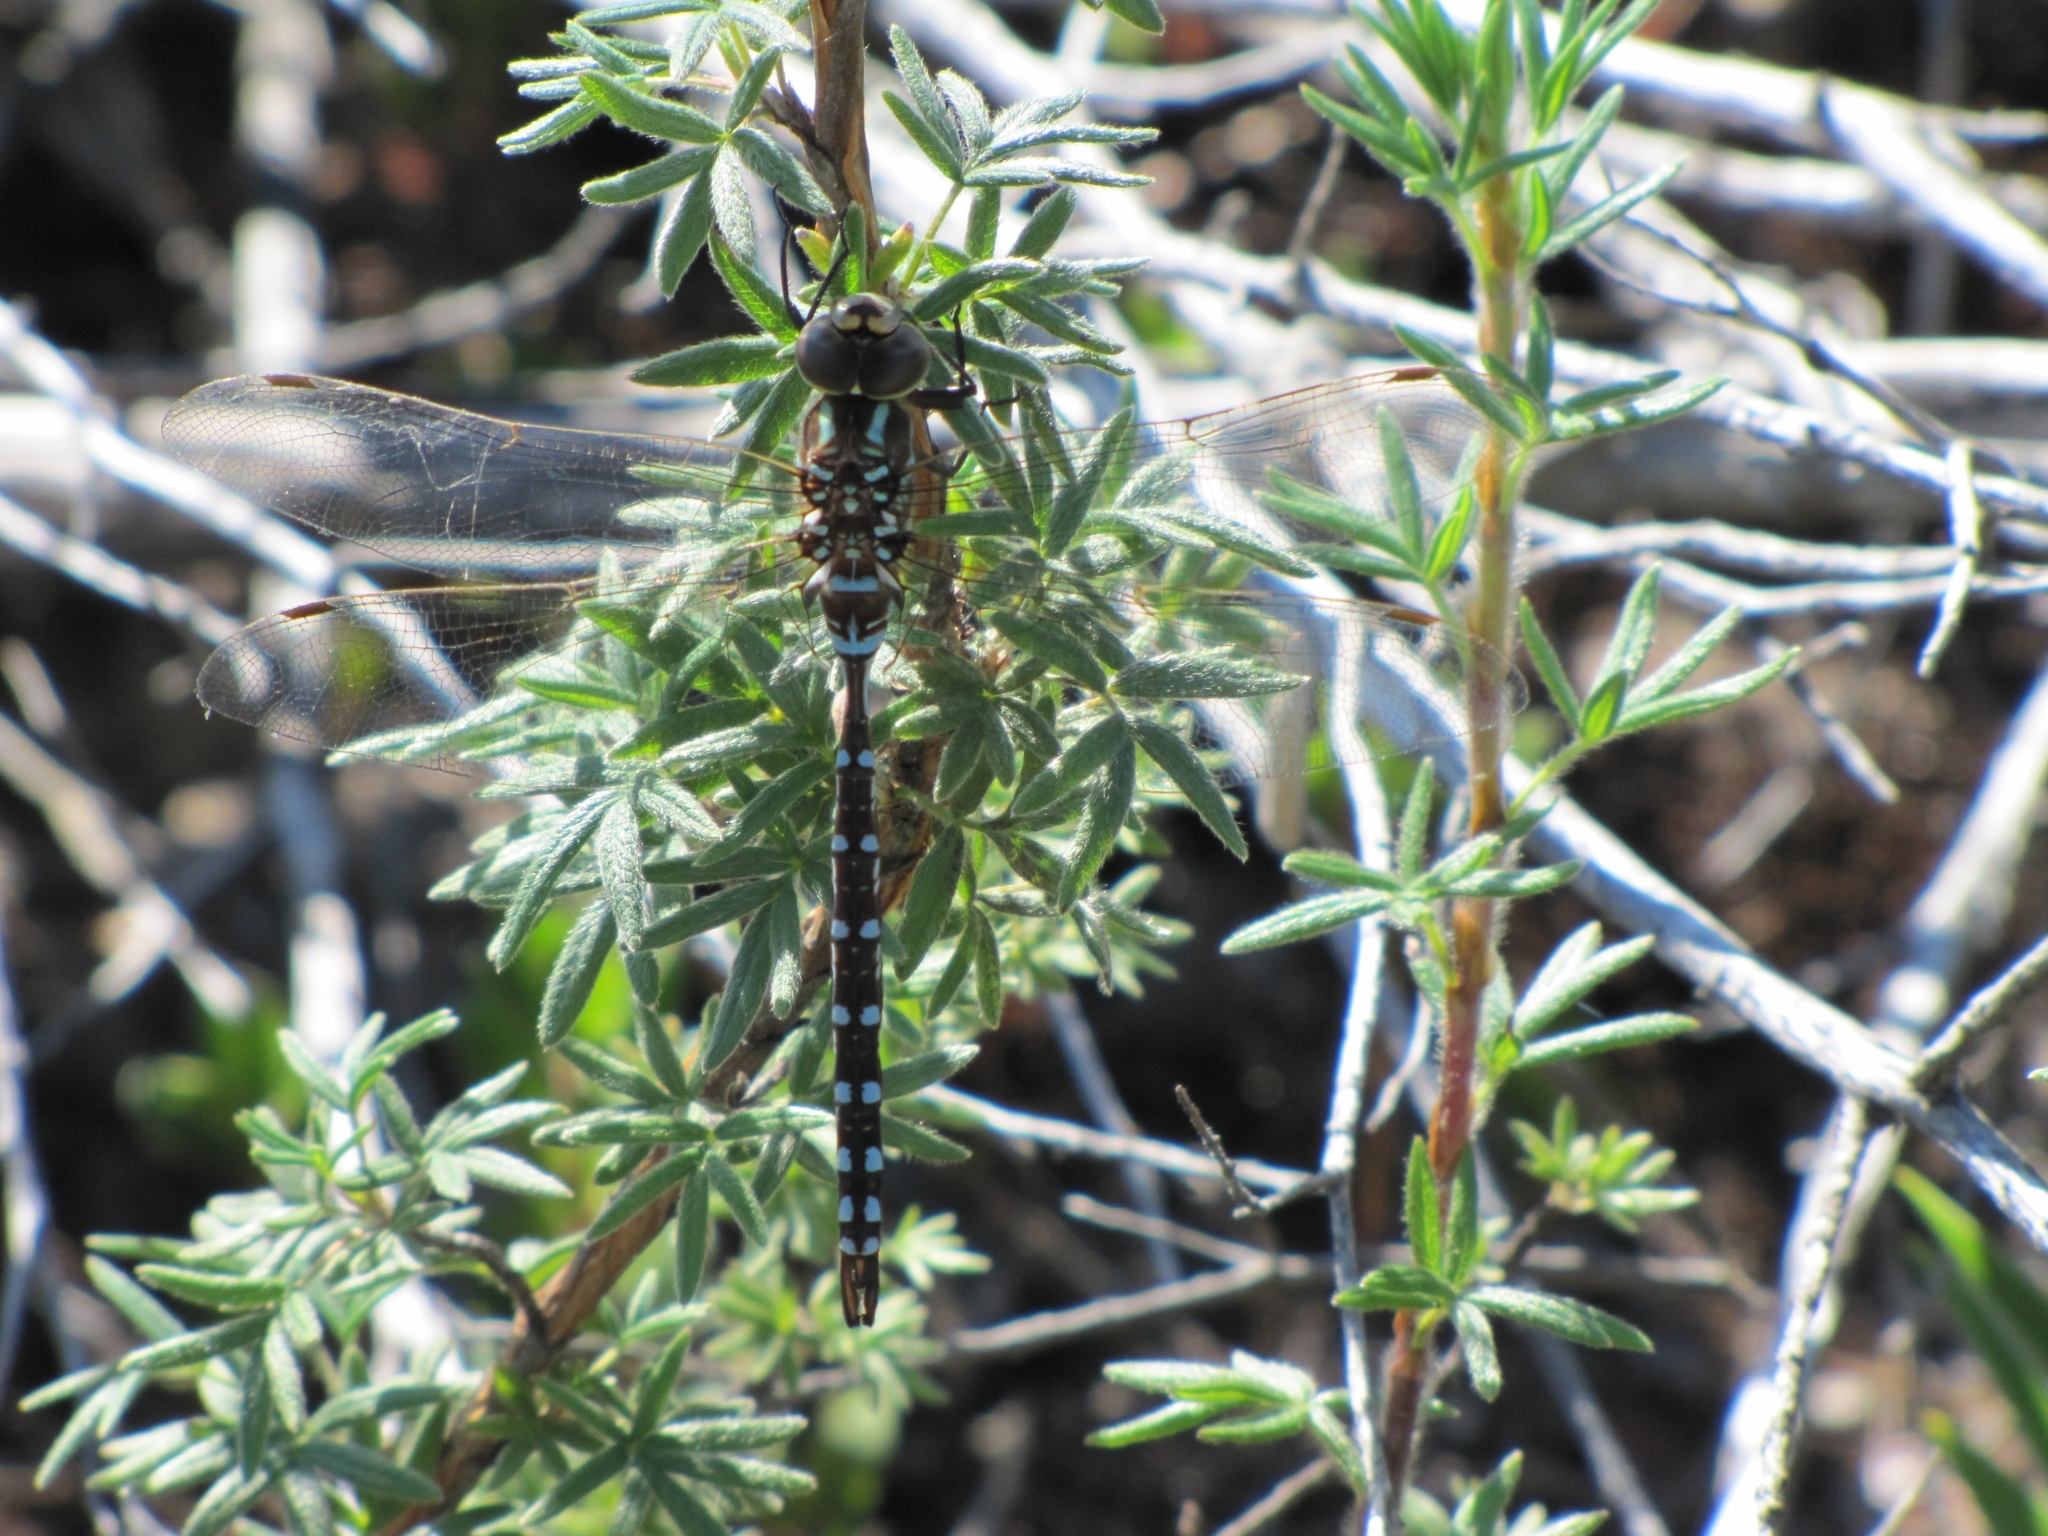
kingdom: Animalia
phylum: Arthropoda
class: Insecta
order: Odonata
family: Aeshnidae
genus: Aeshna
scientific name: Aeshna constricta
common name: Lance-tipped darner
